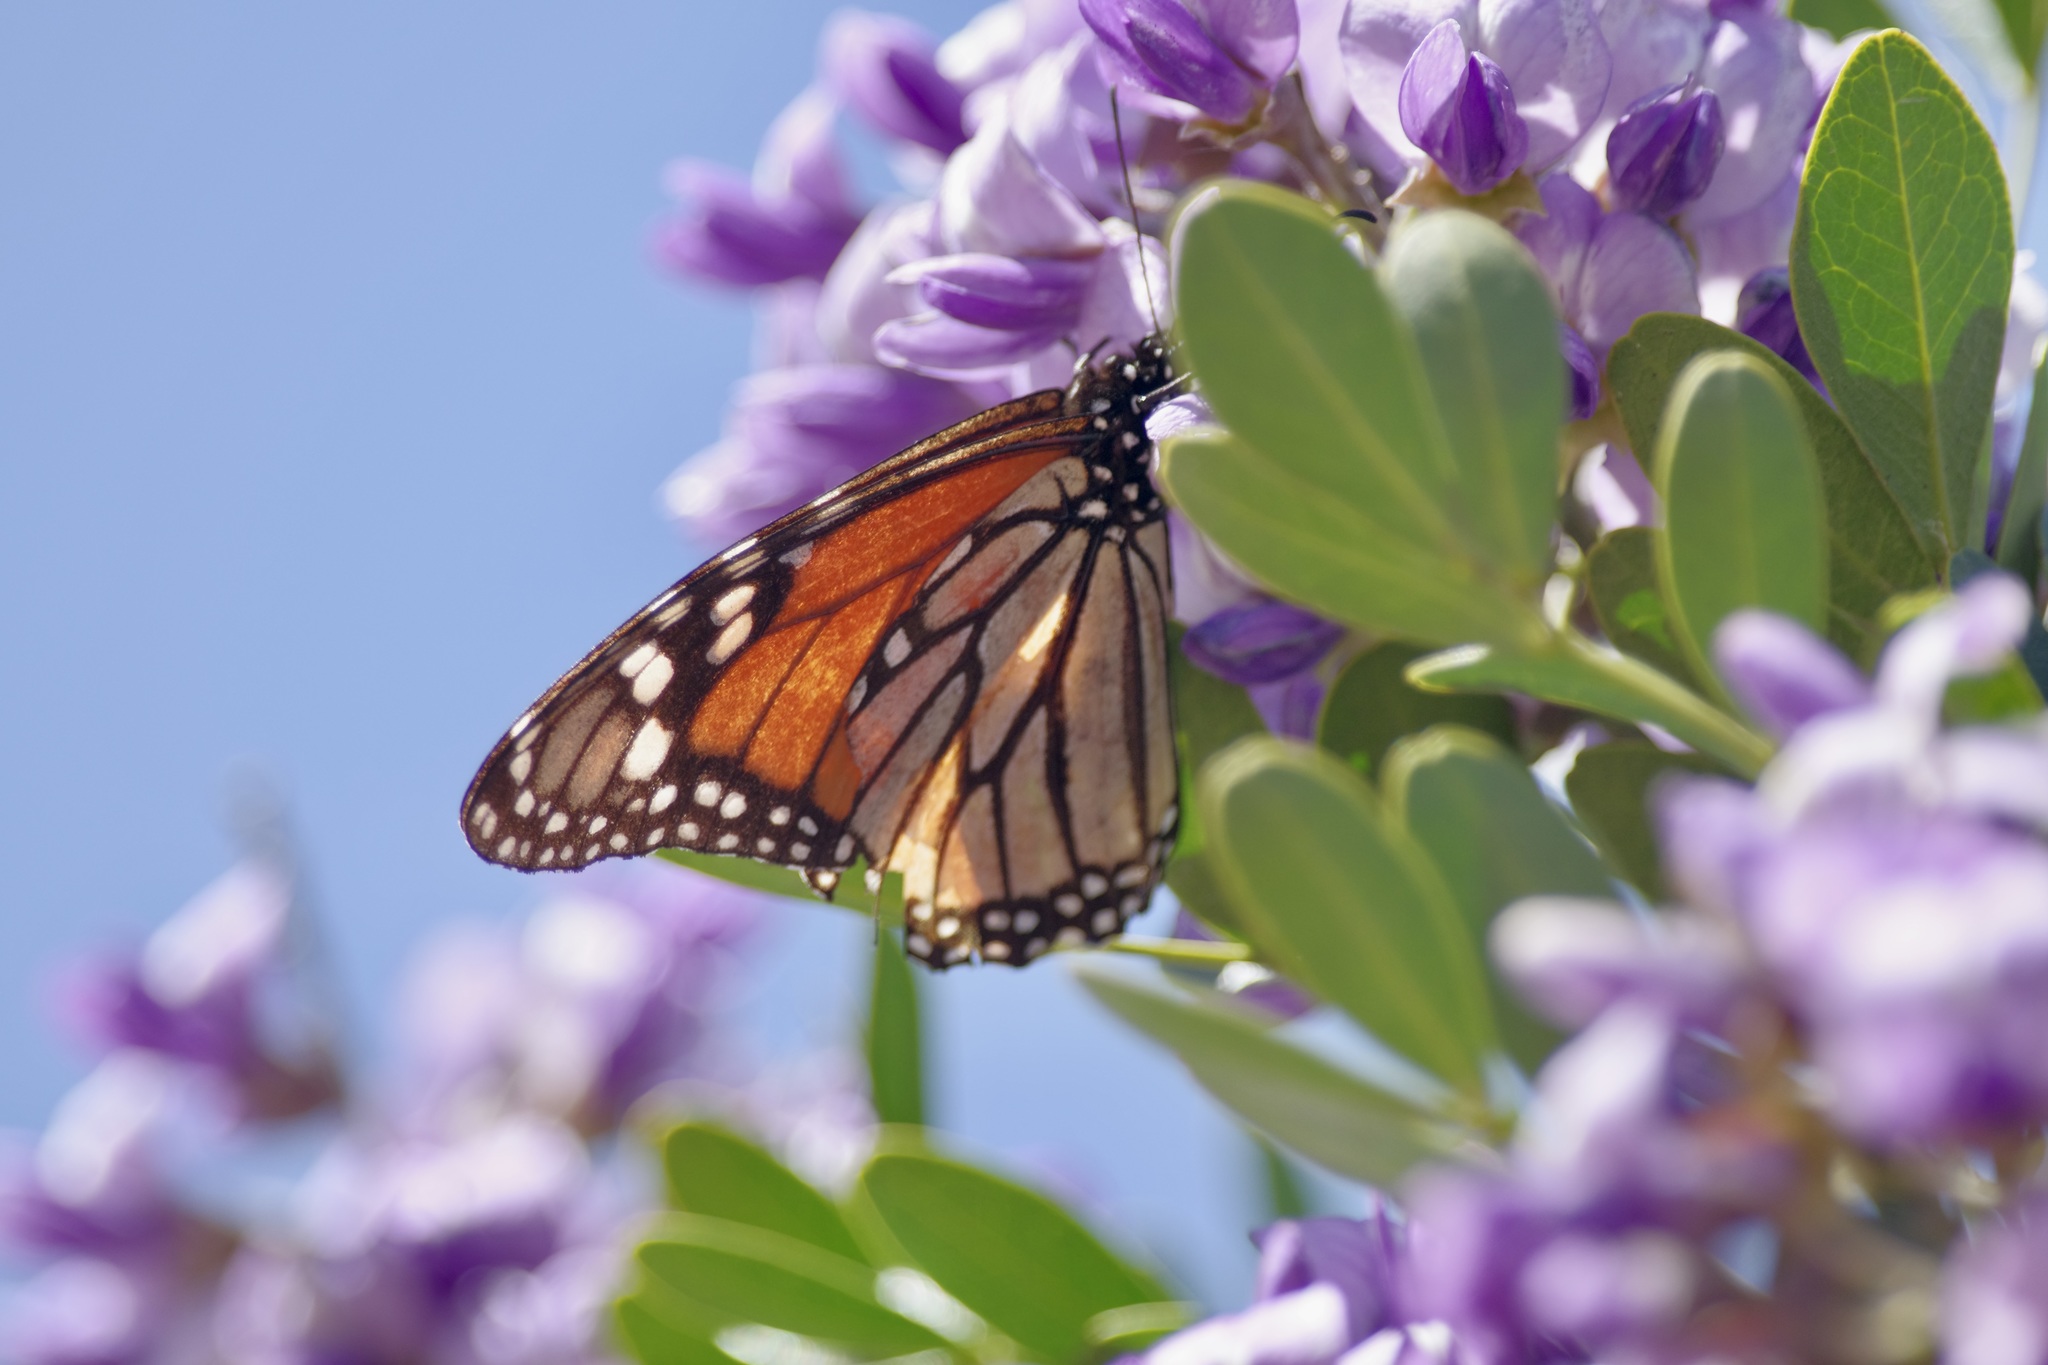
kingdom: Animalia
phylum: Arthropoda
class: Insecta
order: Lepidoptera
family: Nymphalidae
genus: Danaus
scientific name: Danaus plexippus
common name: Monarch
